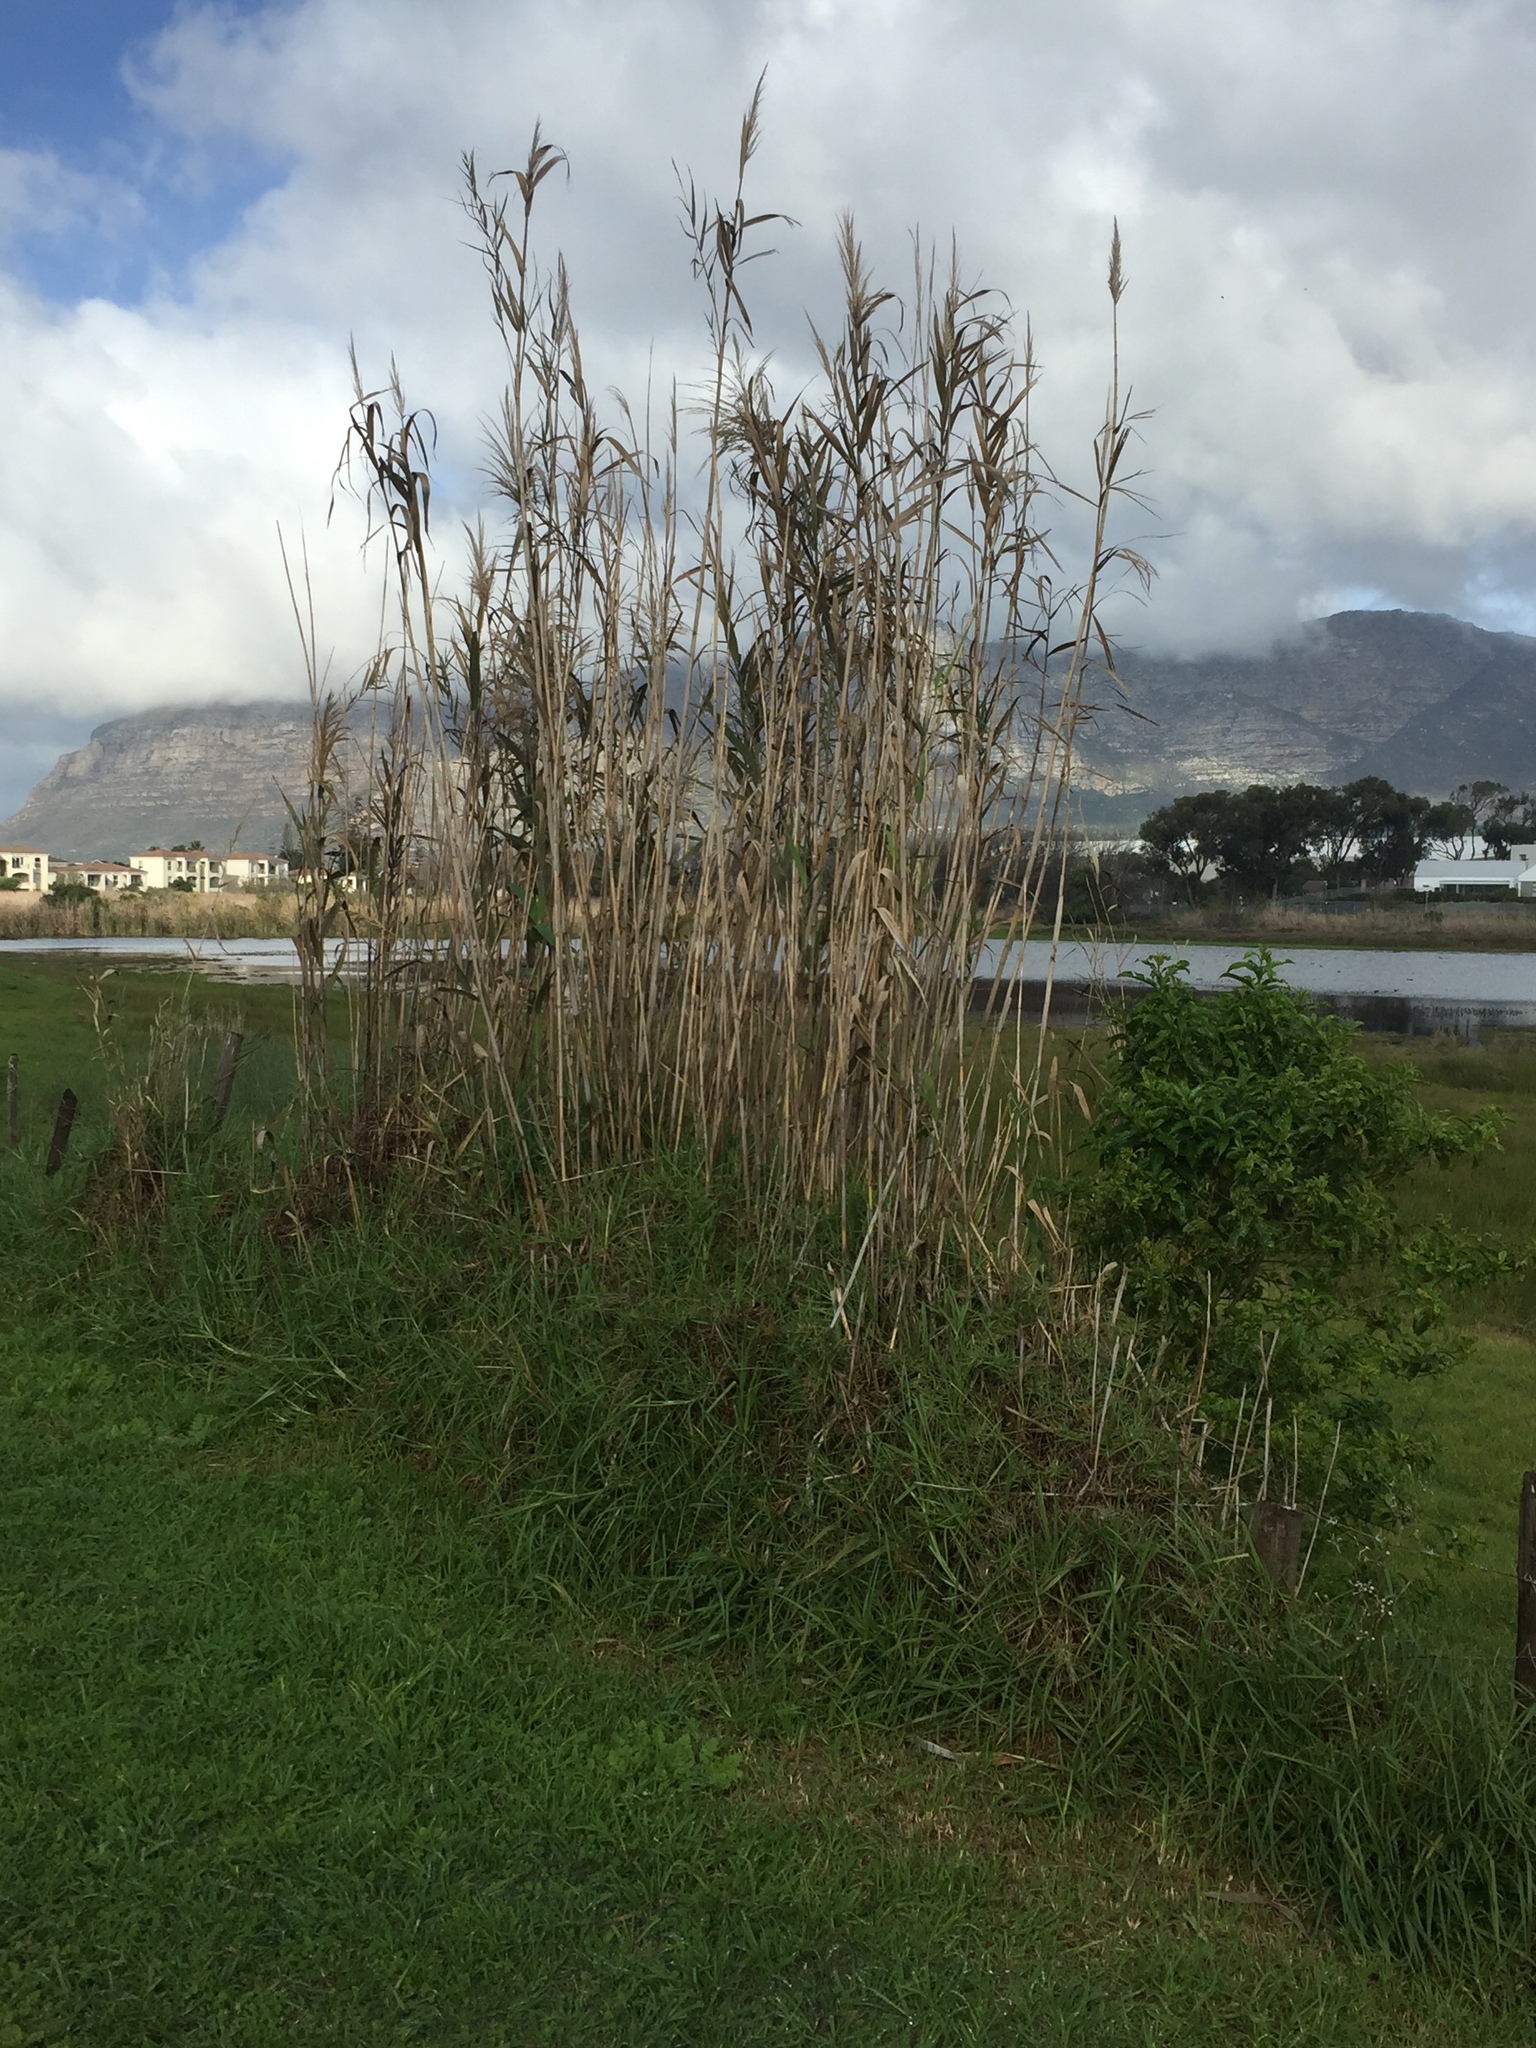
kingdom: Plantae
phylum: Tracheophyta
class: Liliopsida
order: Poales
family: Poaceae
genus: Phragmites
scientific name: Phragmites australis
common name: Common reed
